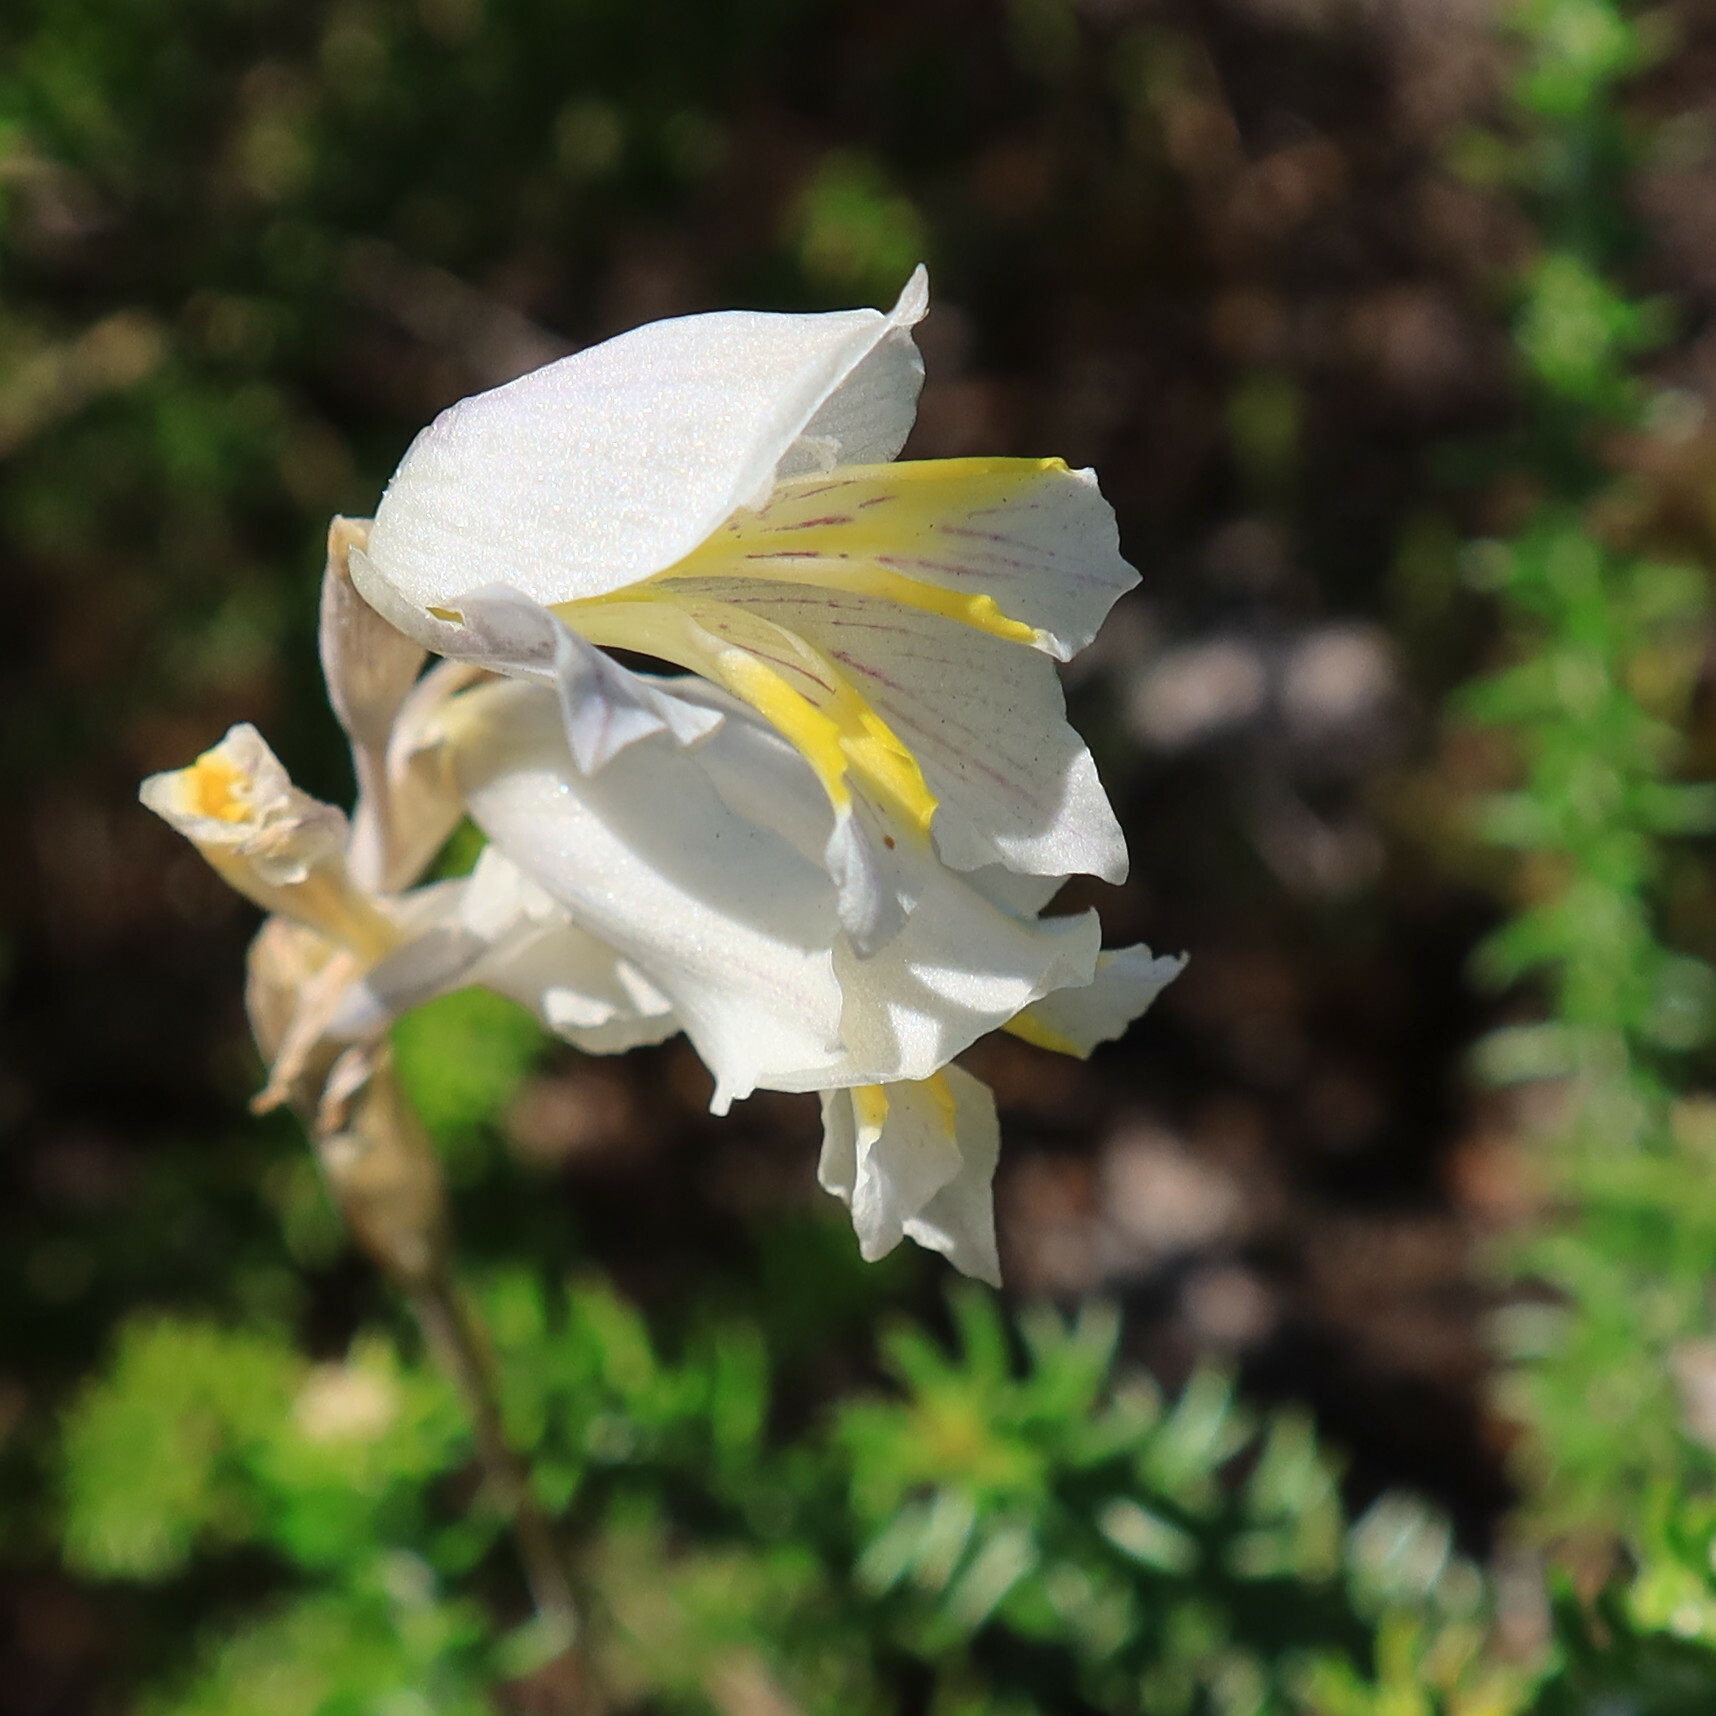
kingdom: Plantae
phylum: Tracheophyta
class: Liliopsida
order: Asparagales
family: Iridaceae
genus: Gladiolus
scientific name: Gladiolus jonquilodorus
